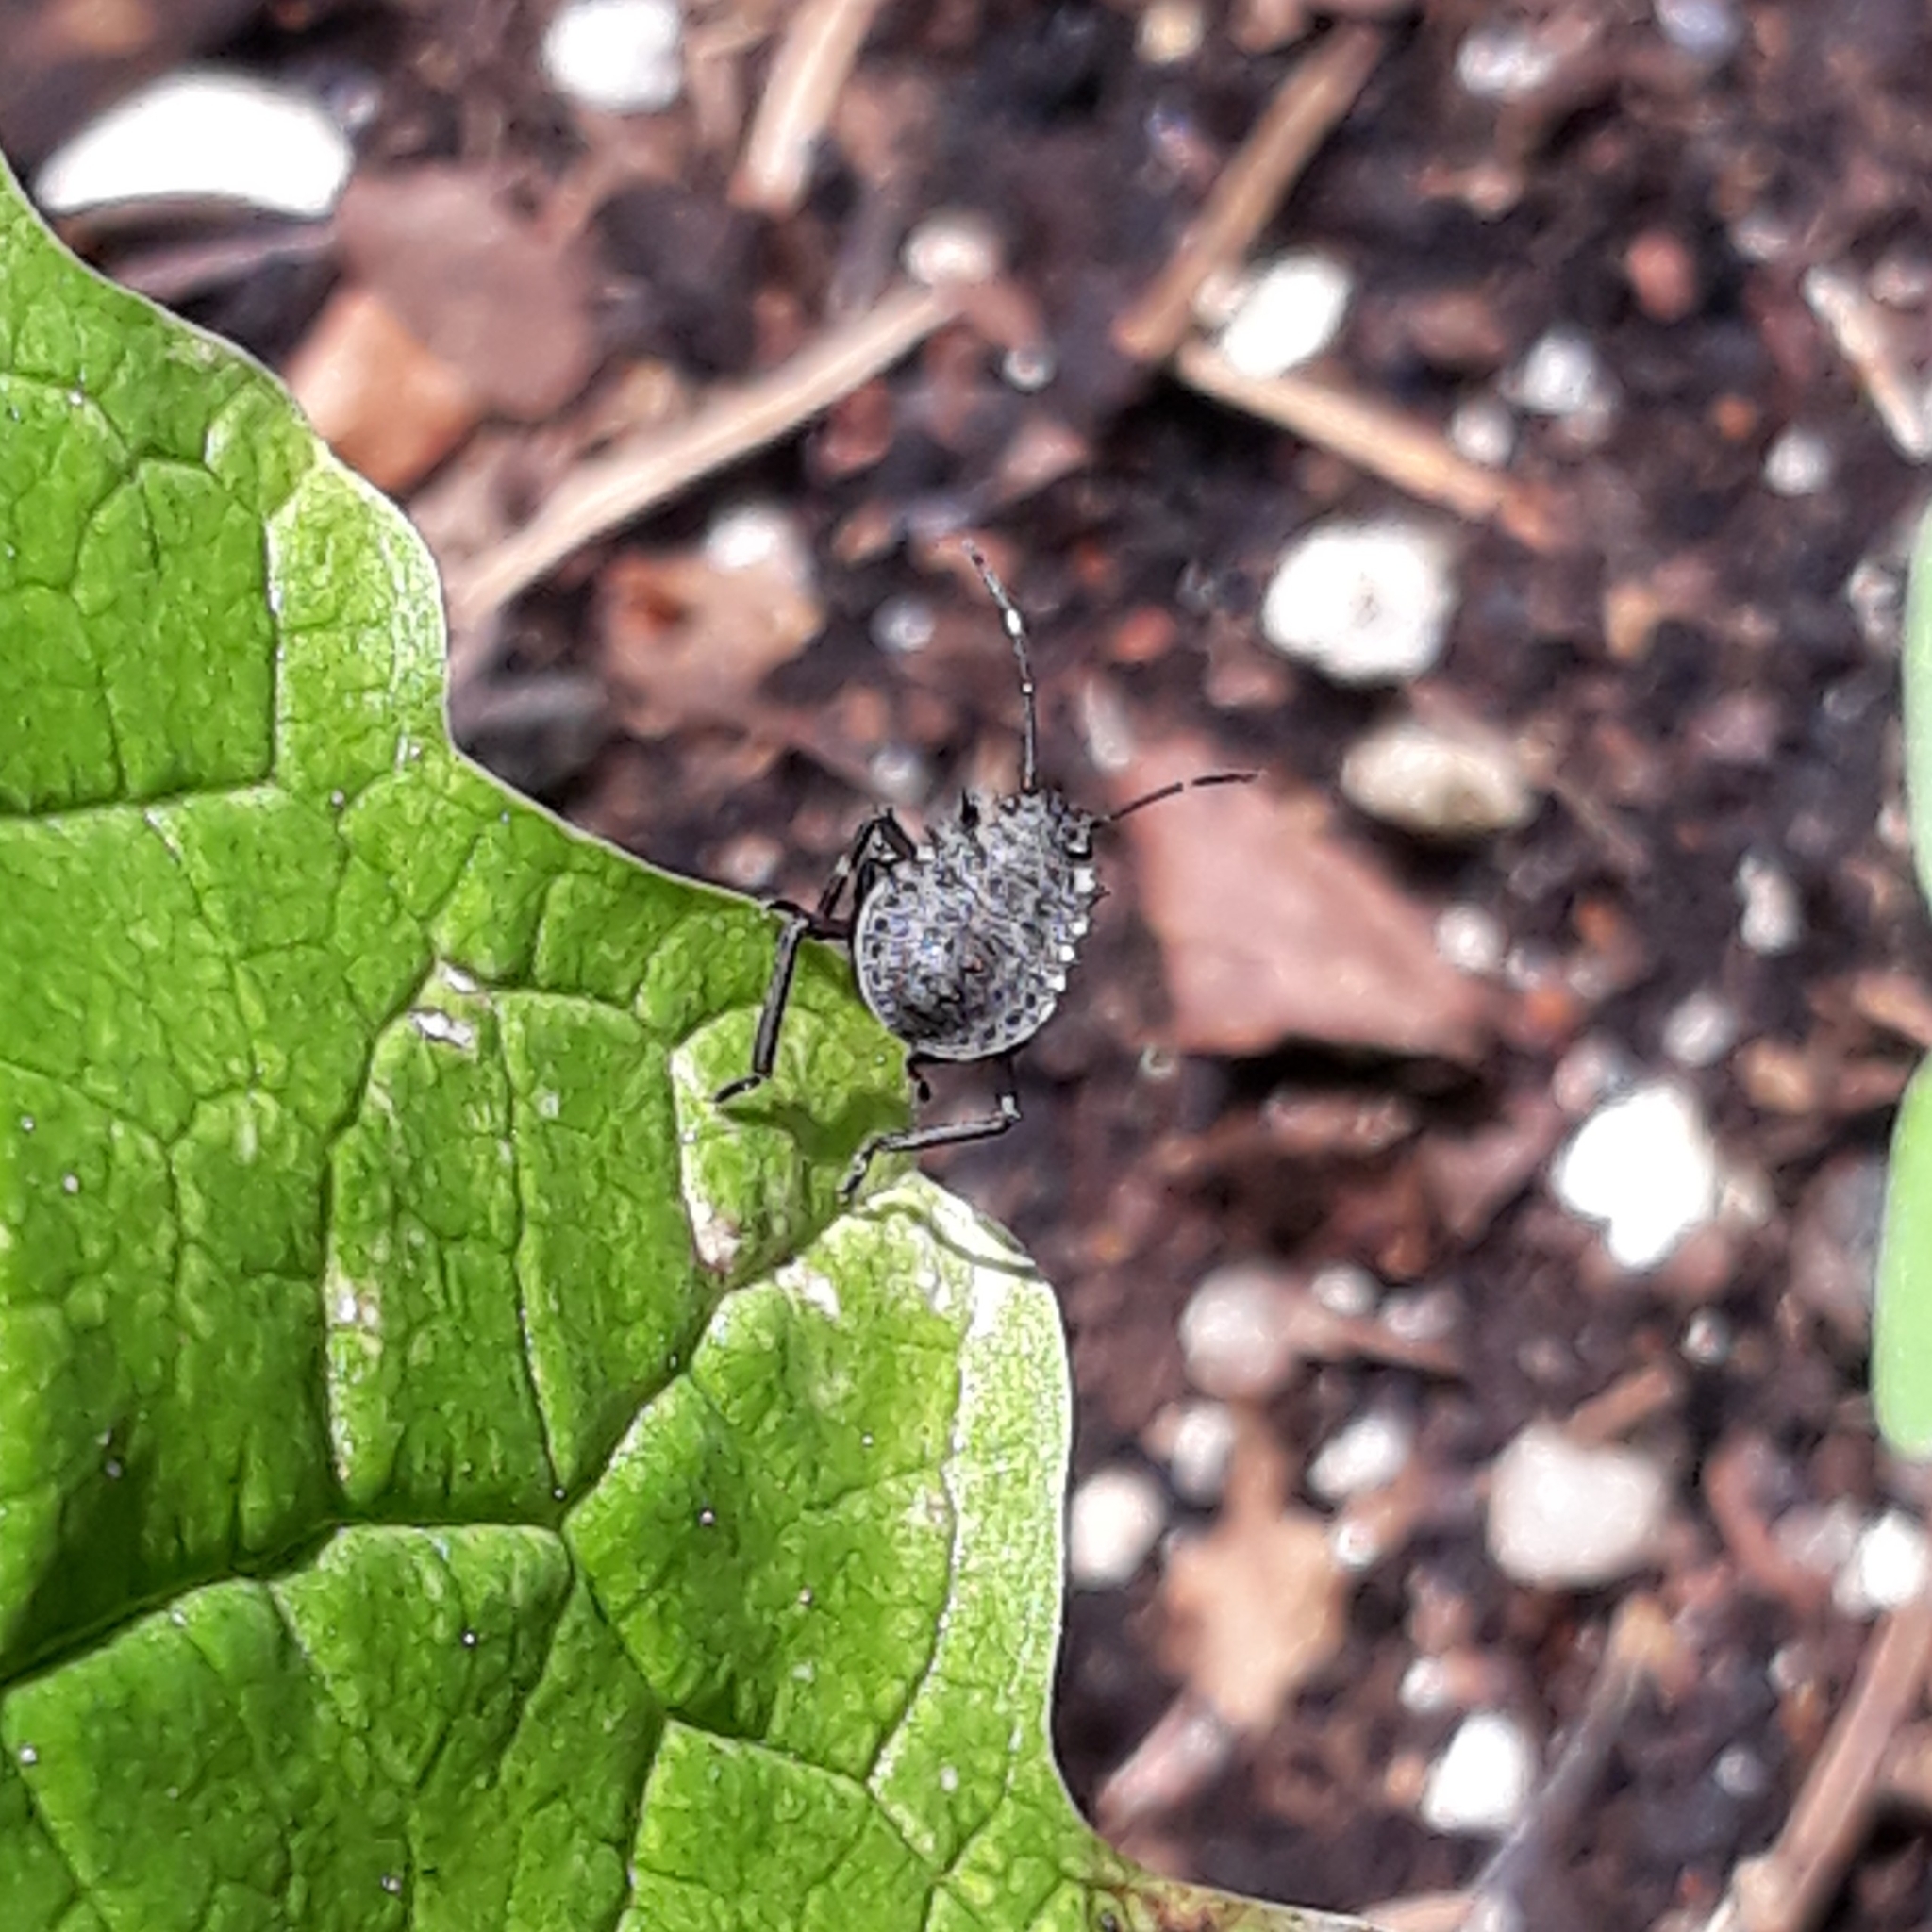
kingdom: Animalia
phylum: Arthropoda
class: Insecta
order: Hemiptera
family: Pentatomidae
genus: Halyomorpha
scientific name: Halyomorpha halys
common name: Brown marmorated stink bug
